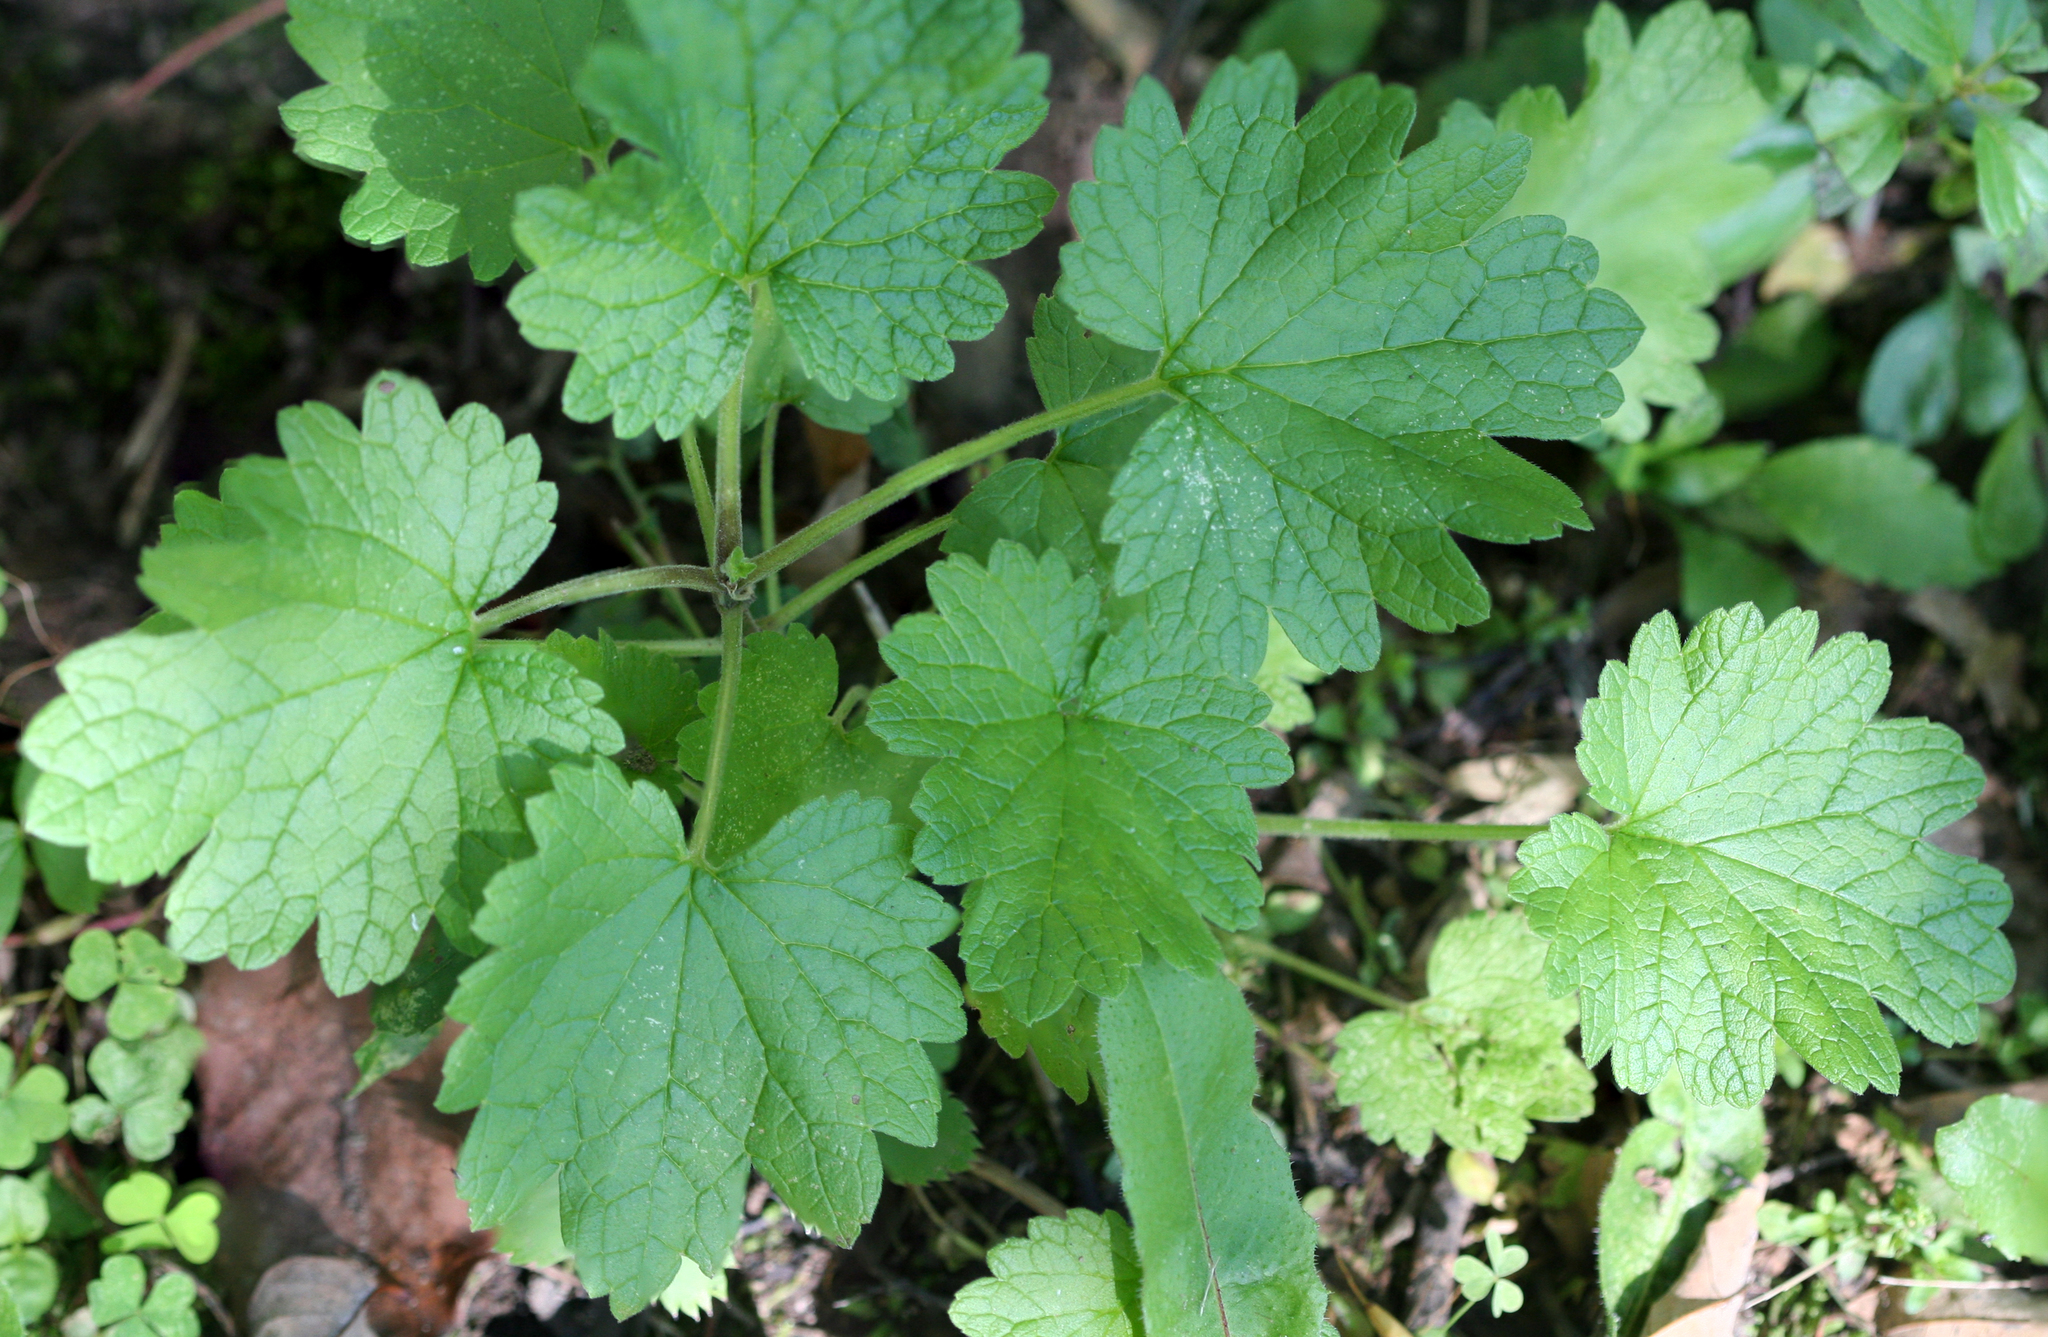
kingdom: Plantae
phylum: Tracheophyta
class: Magnoliopsida
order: Lamiales
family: Lamiaceae
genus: Leonurus
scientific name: Leonurus cardiaca
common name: Motherwort
